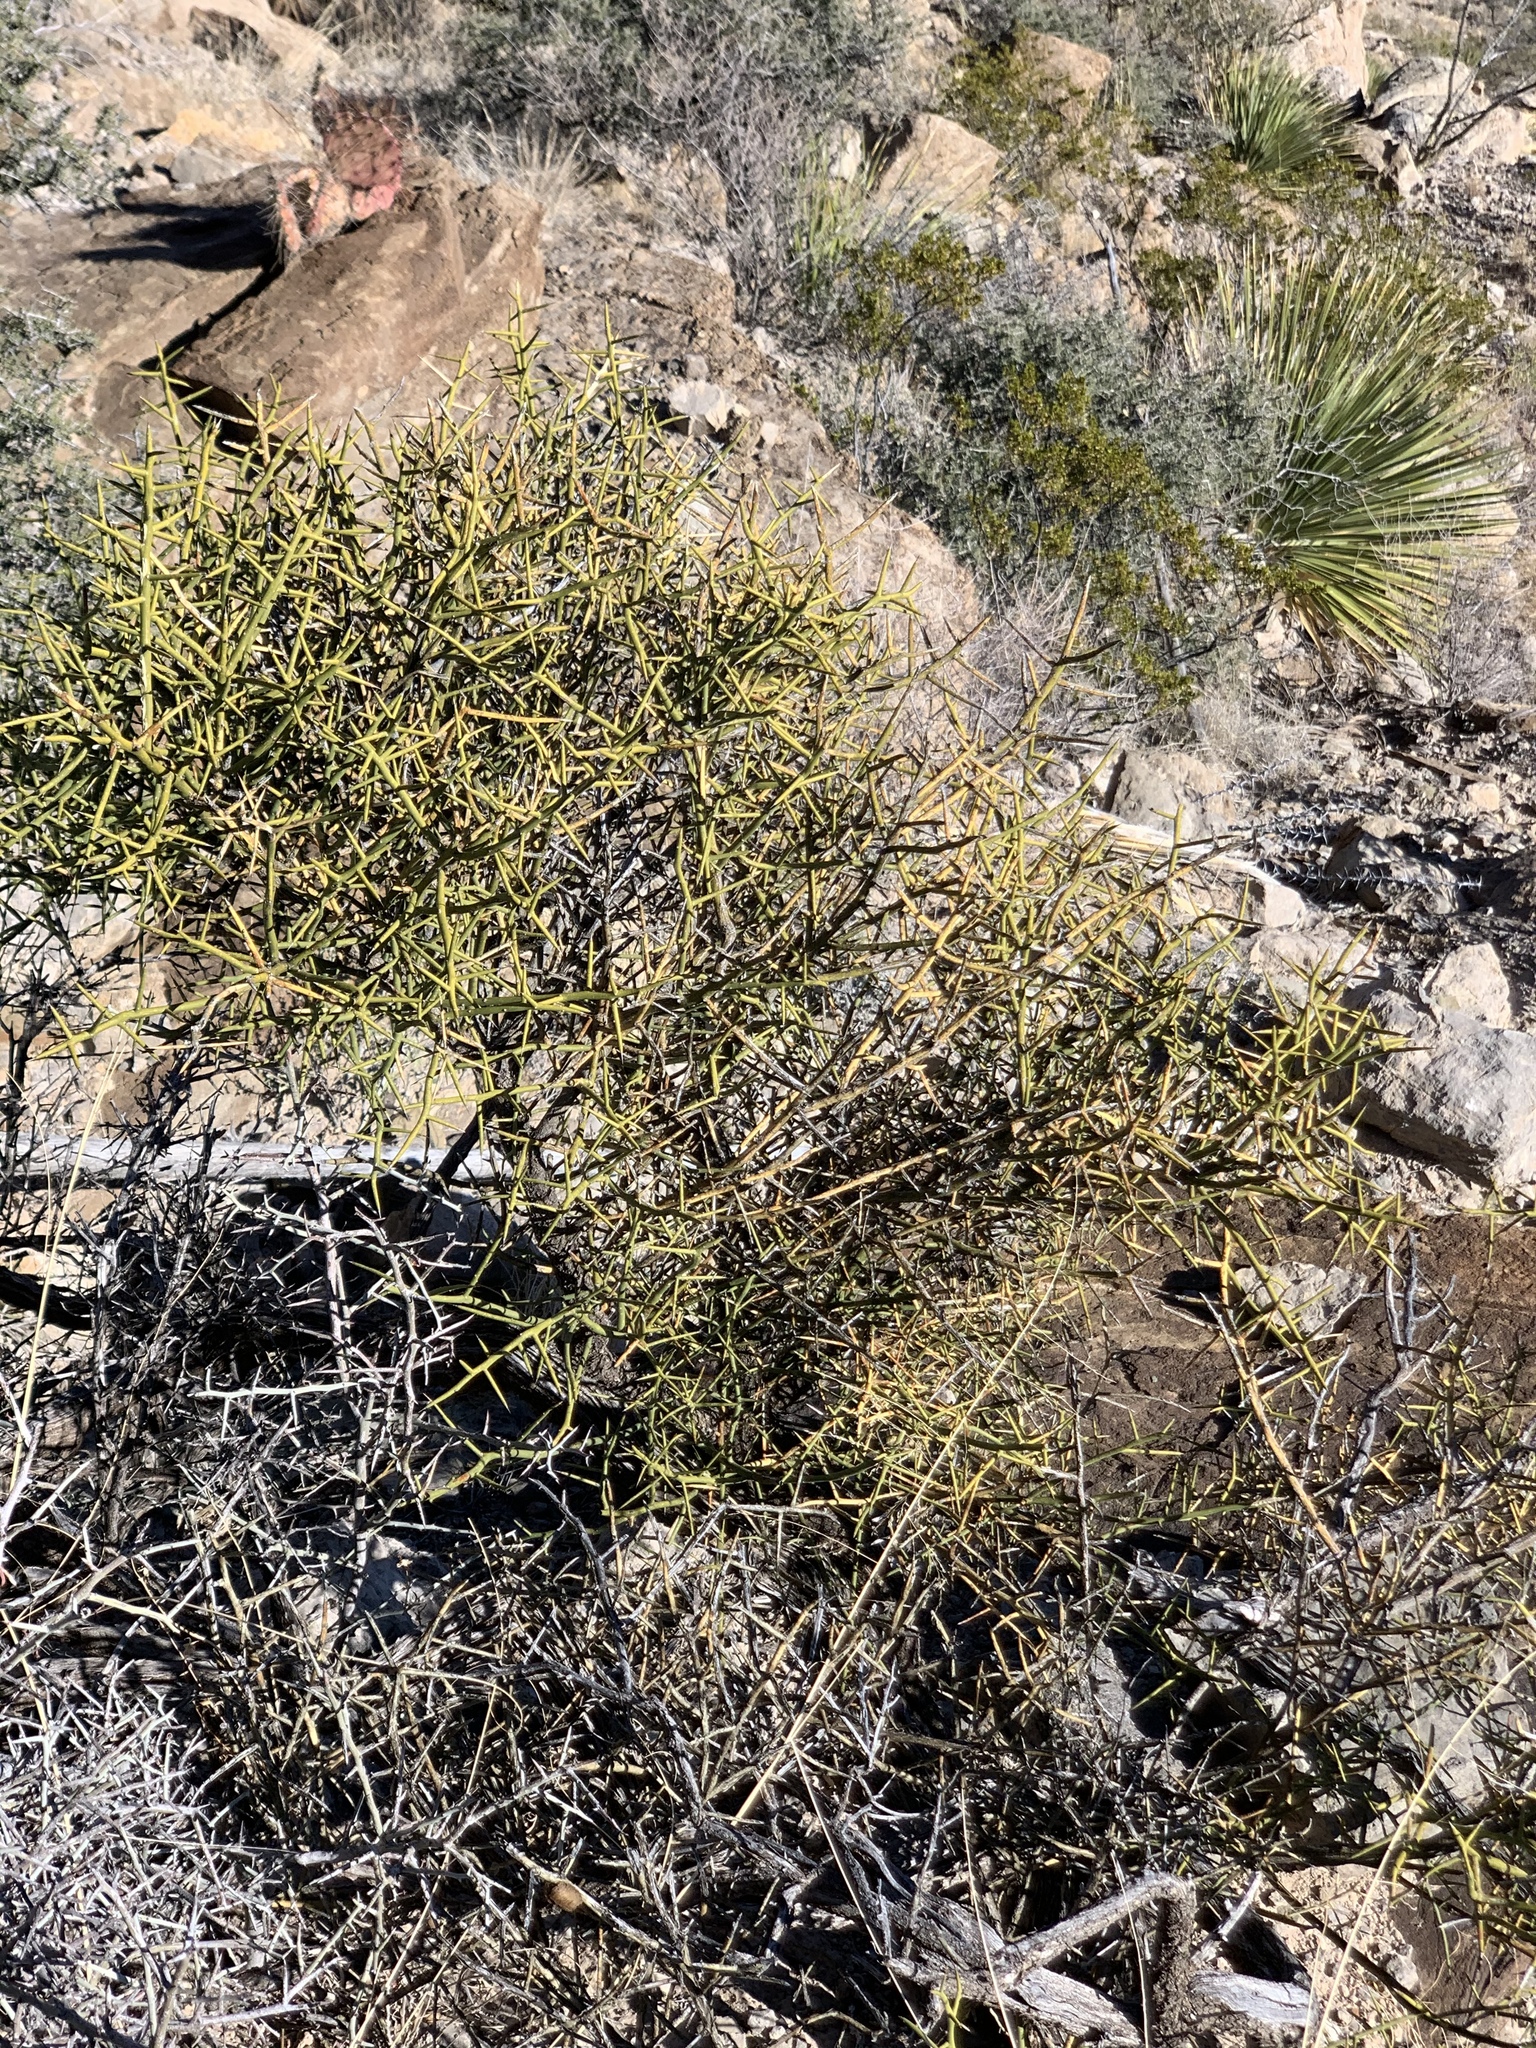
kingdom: Plantae
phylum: Tracheophyta
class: Magnoliopsida
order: Brassicales
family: Koeberliniaceae
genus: Koeberlinia
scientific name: Koeberlinia spinosa
